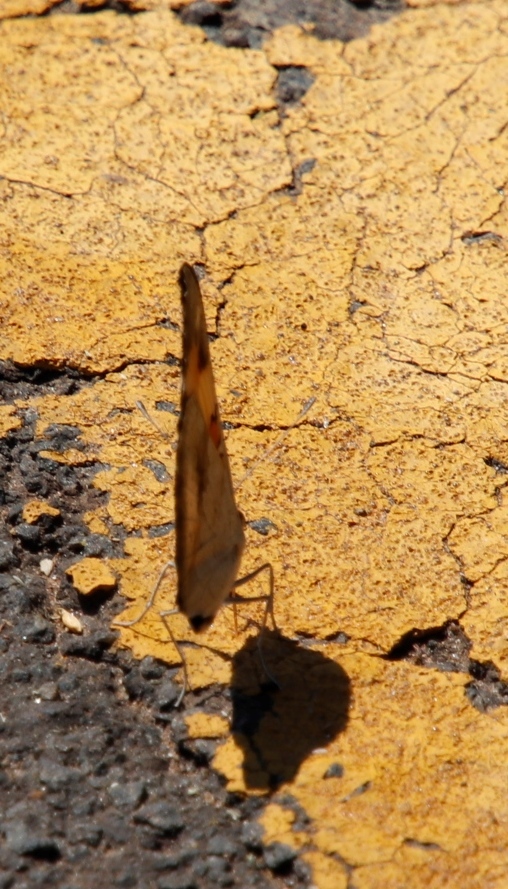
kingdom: Animalia
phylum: Arthropoda
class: Insecta
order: Lepidoptera
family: Nymphalidae
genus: Junonia
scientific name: Junonia hierta
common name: Yellow pansy
